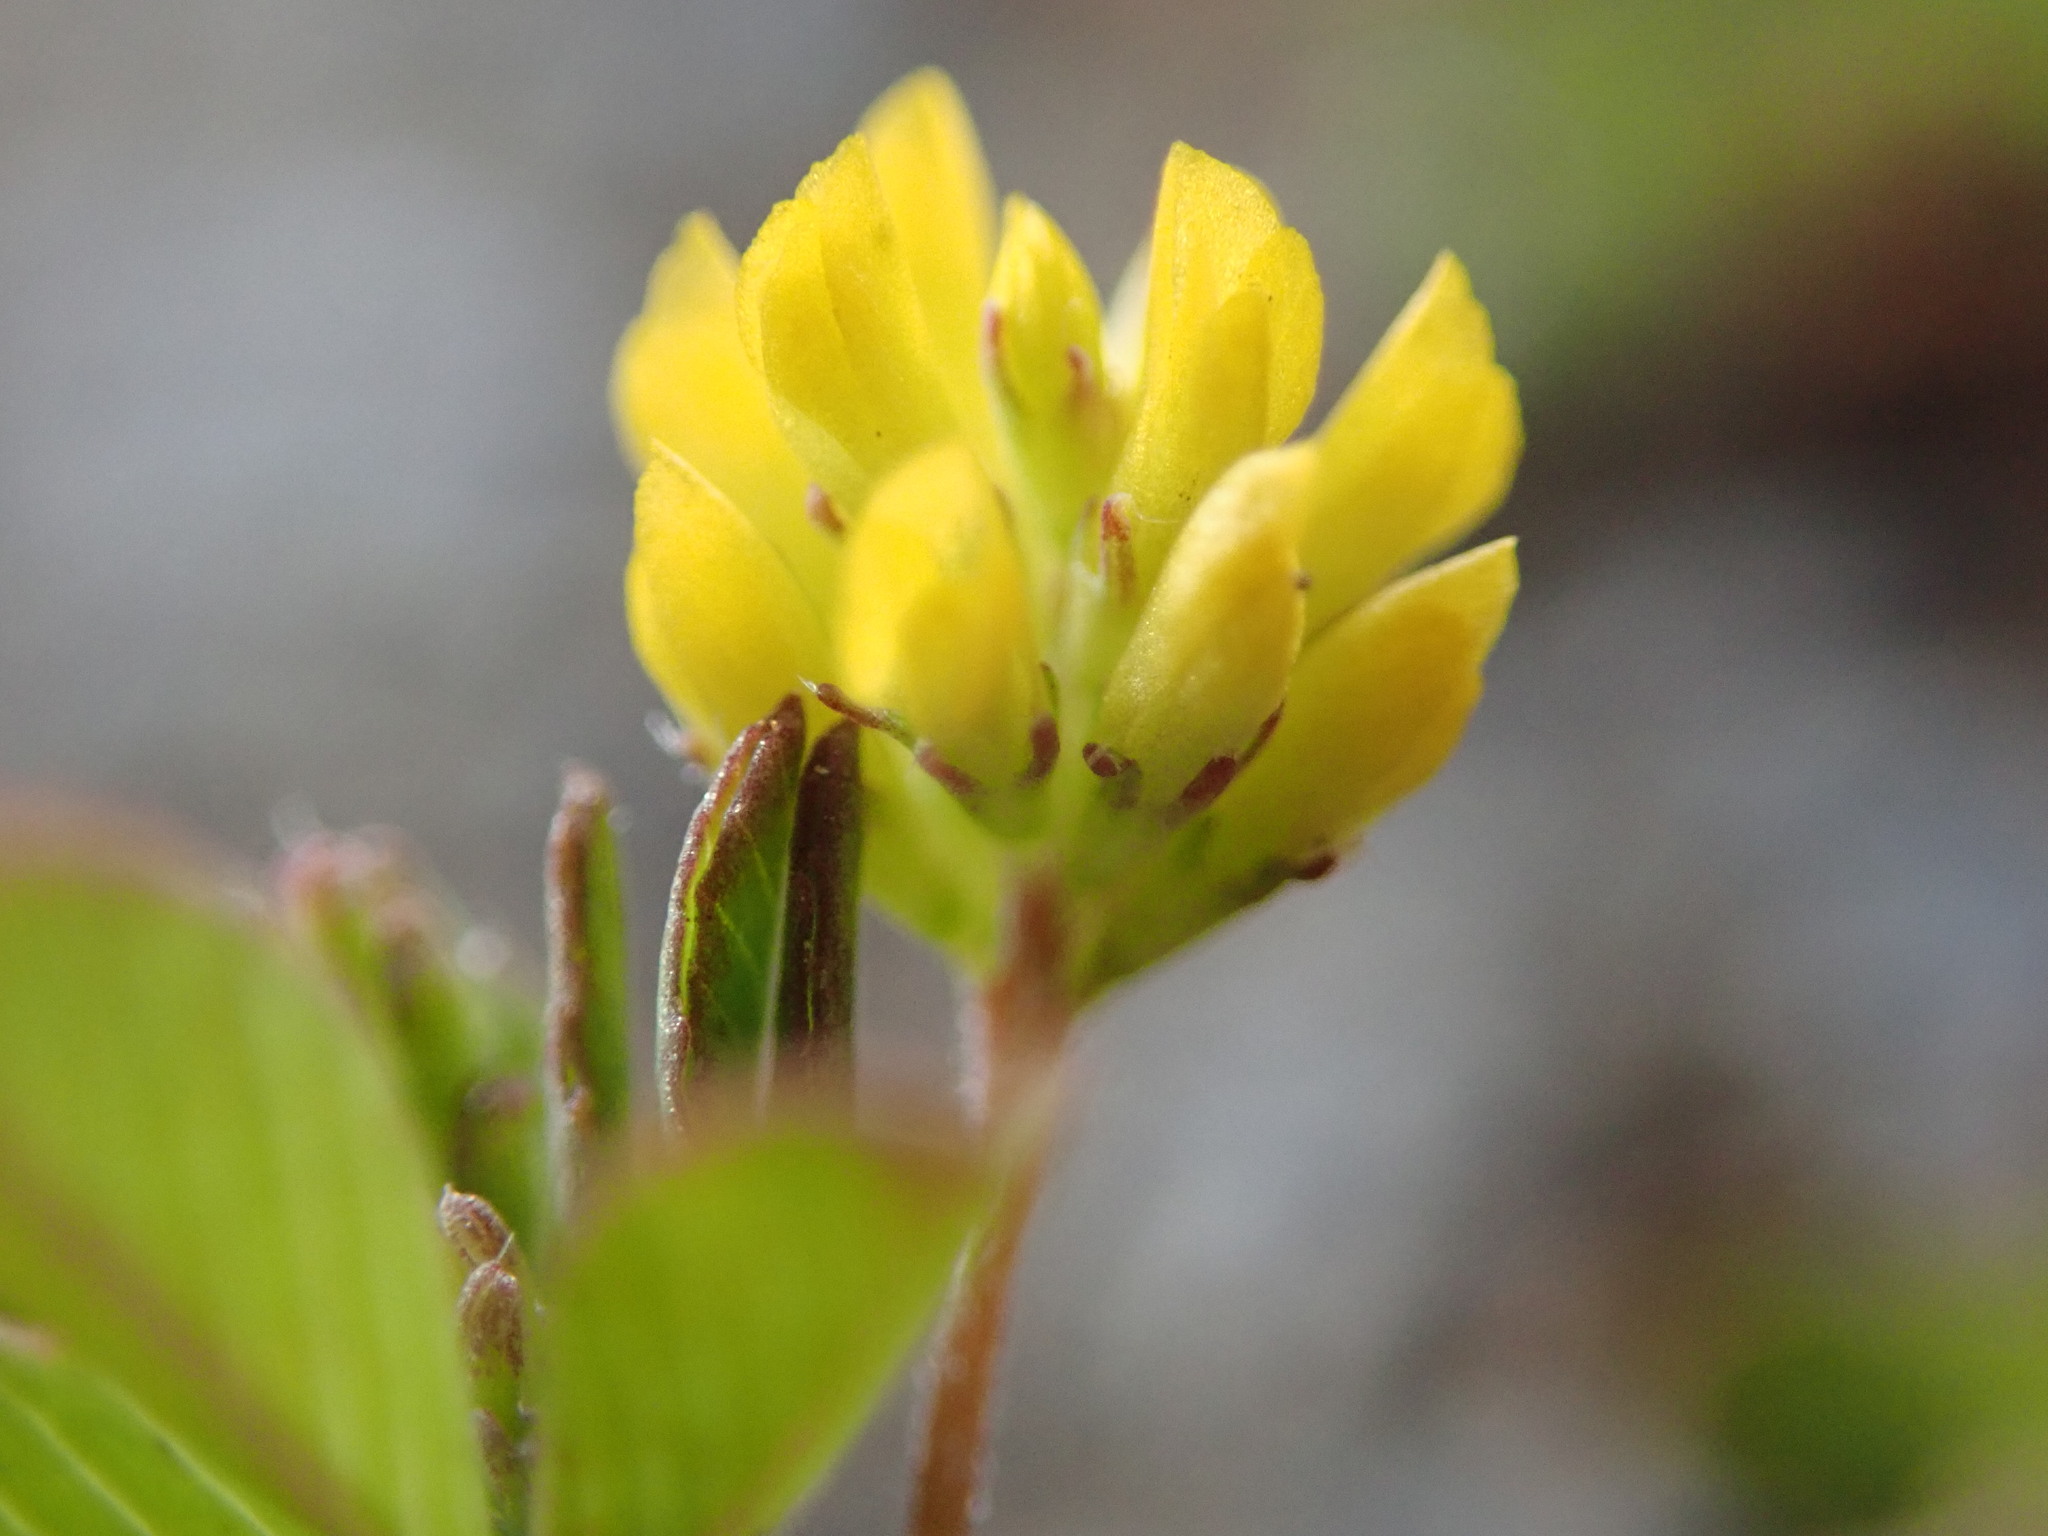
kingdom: Plantae
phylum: Tracheophyta
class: Magnoliopsida
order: Fabales
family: Fabaceae
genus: Trifolium
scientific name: Trifolium dubium
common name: Suckling clover
